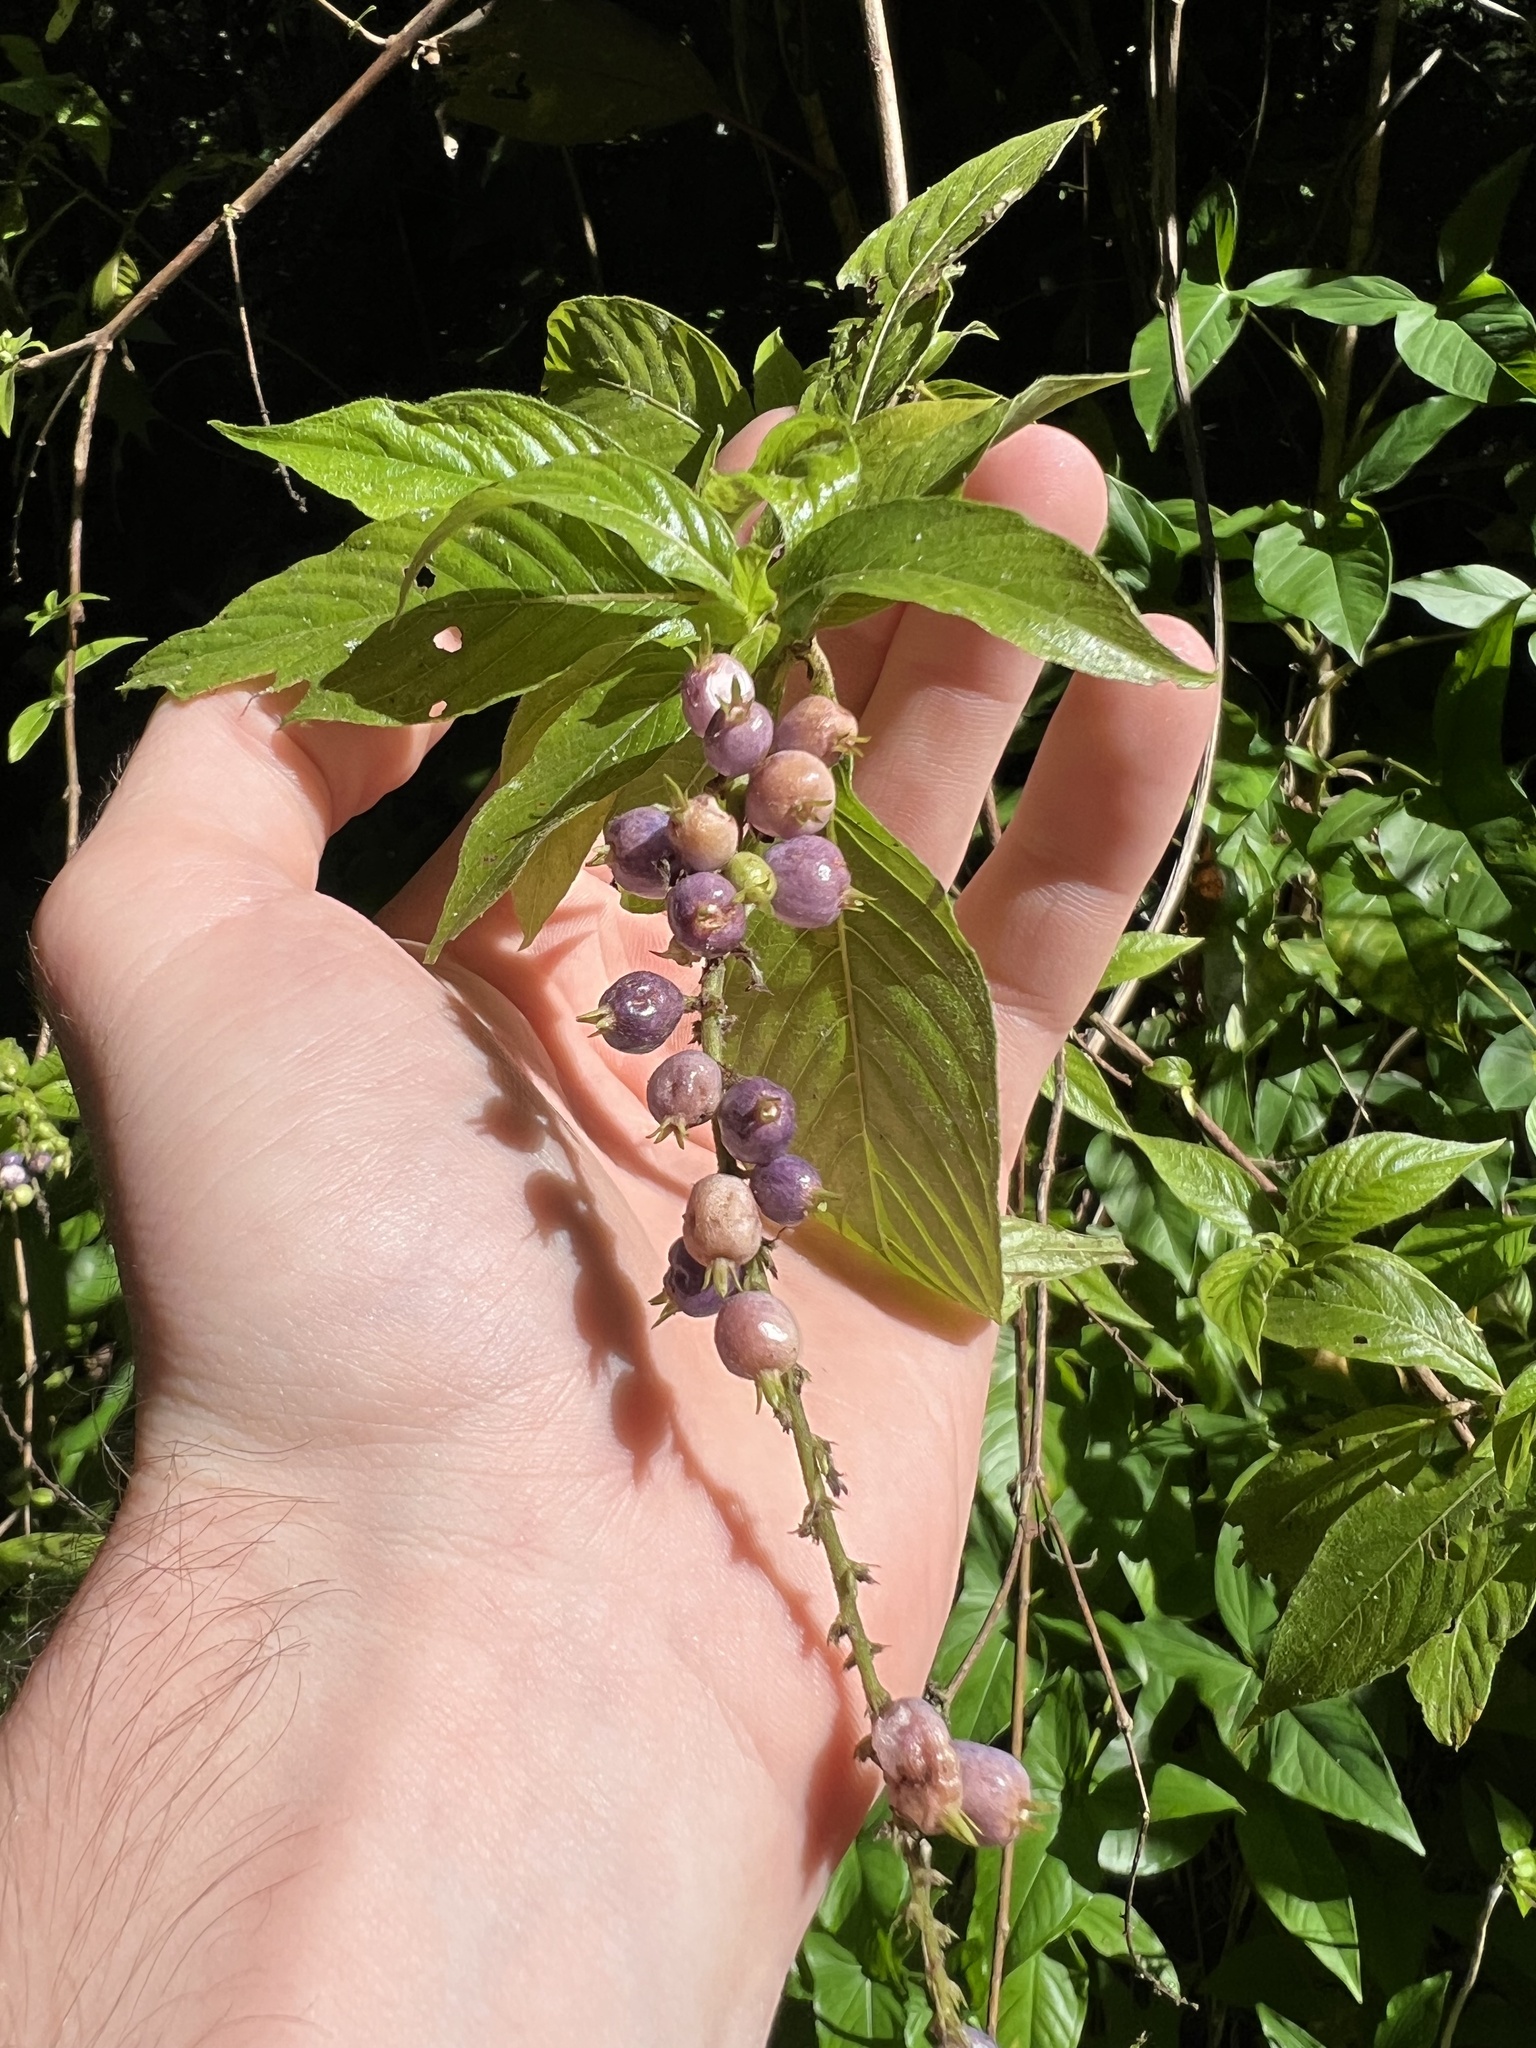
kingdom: Plantae
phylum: Tracheophyta
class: Magnoliopsida
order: Gentianales
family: Rubiaceae
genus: Gonzalagunia
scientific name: Gonzalagunia hirsuta
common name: Mata de mariposa
